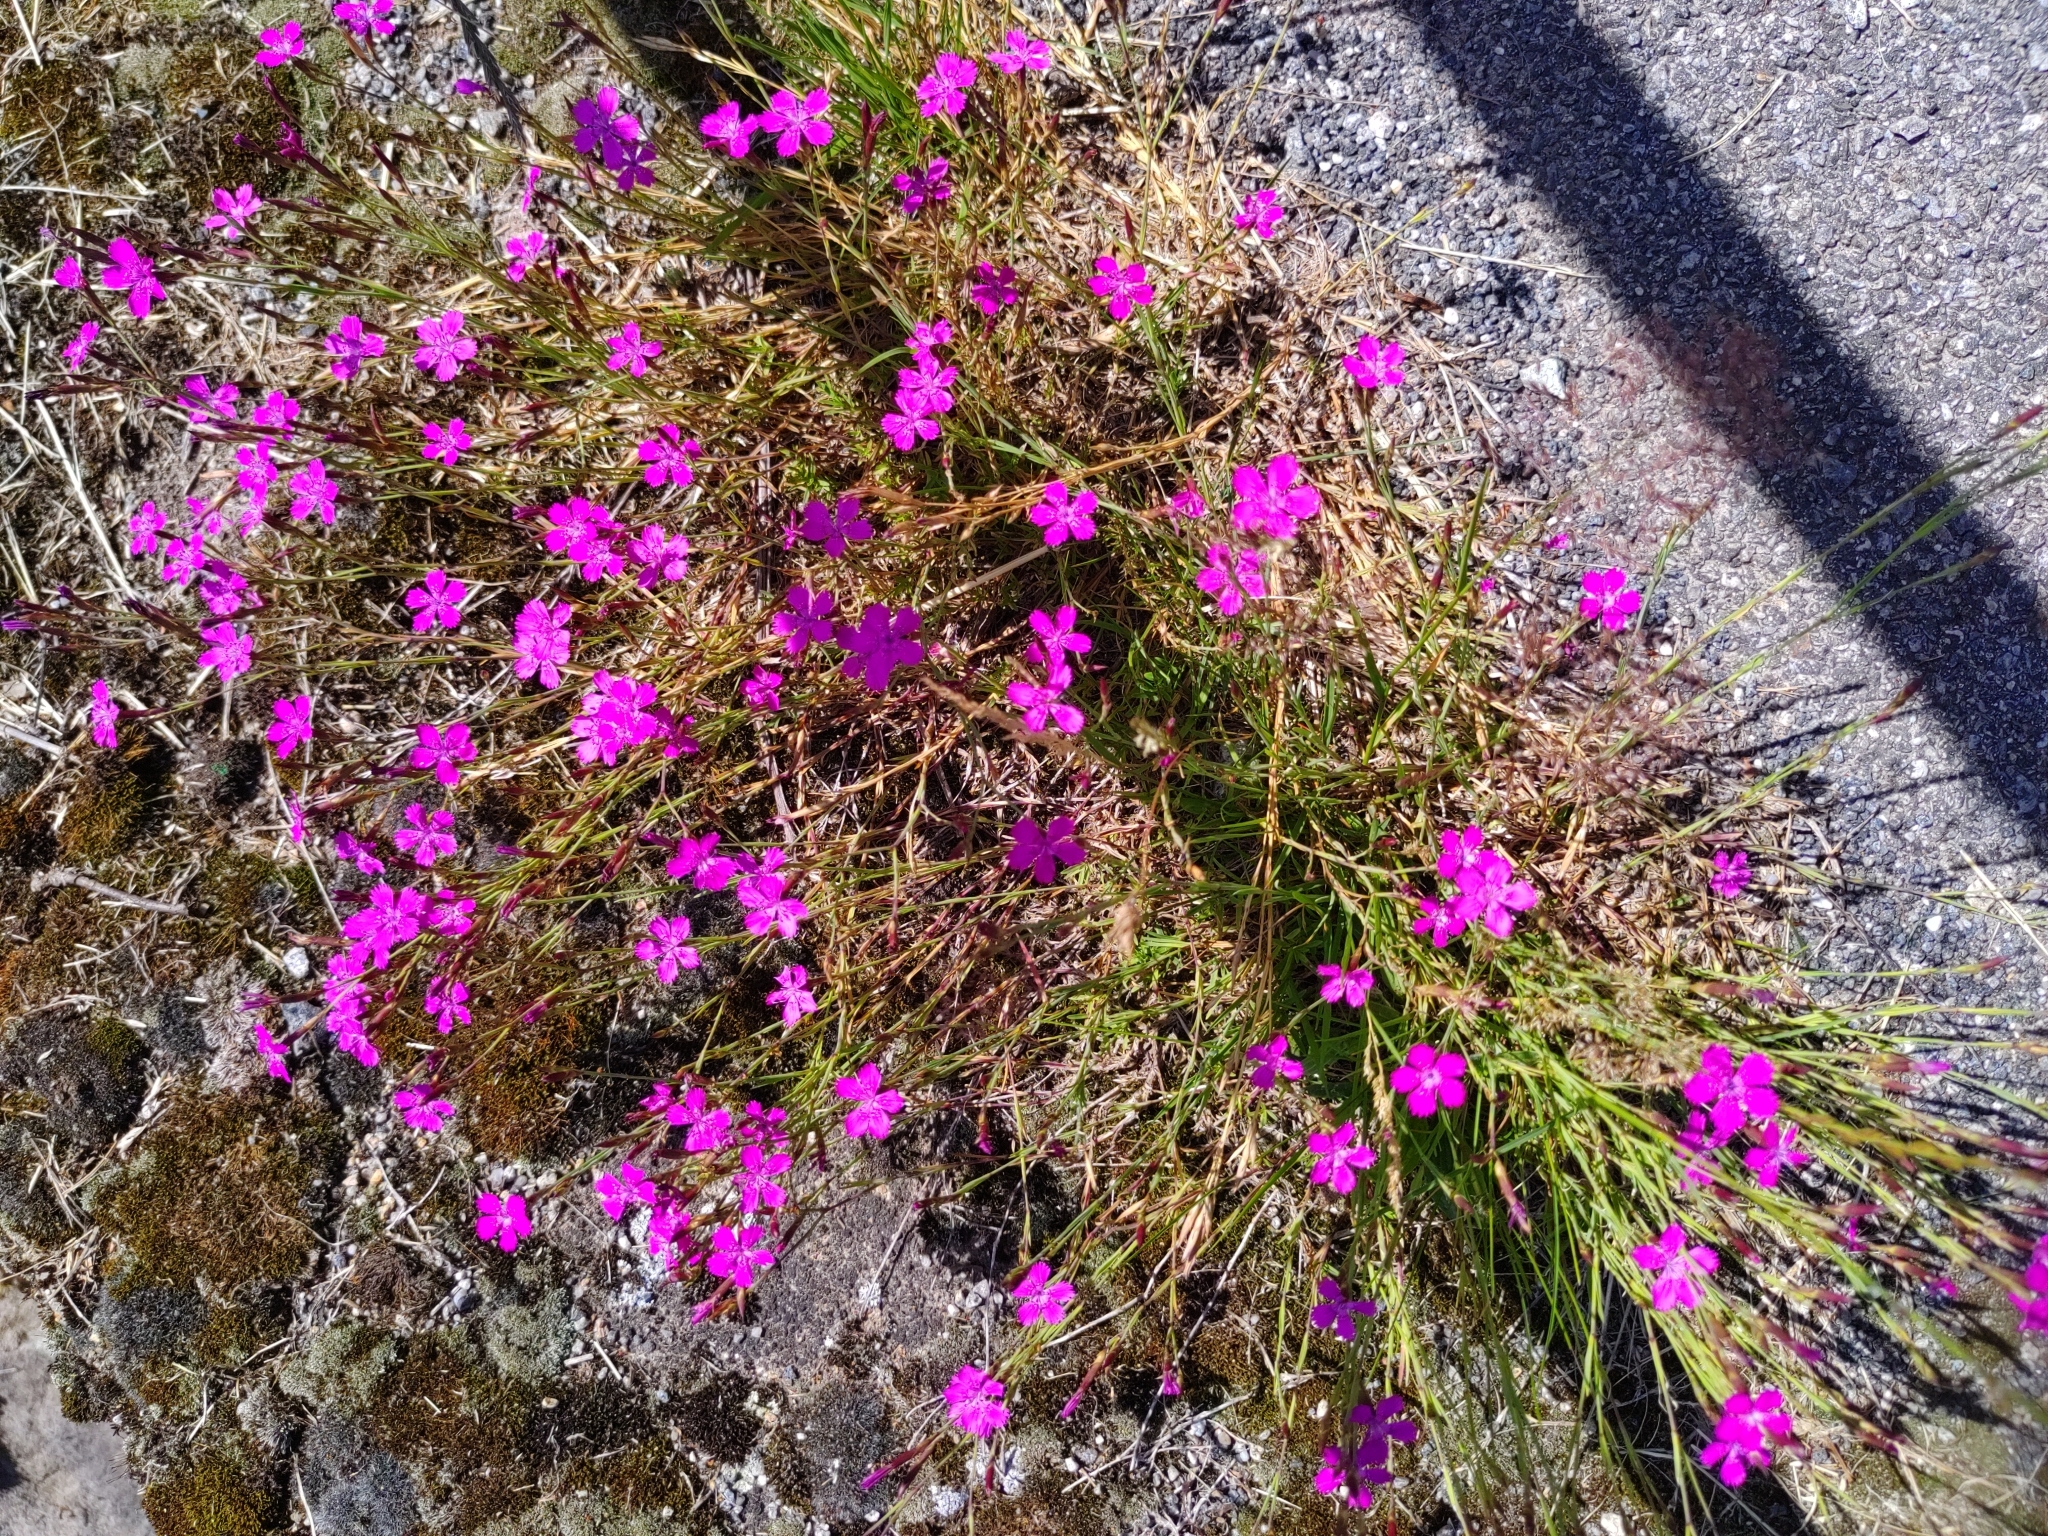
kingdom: Plantae
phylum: Tracheophyta
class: Magnoliopsida
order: Caryophyllales
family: Caryophyllaceae
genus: Dianthus
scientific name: Dianthus deltoides
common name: Maiden pink
